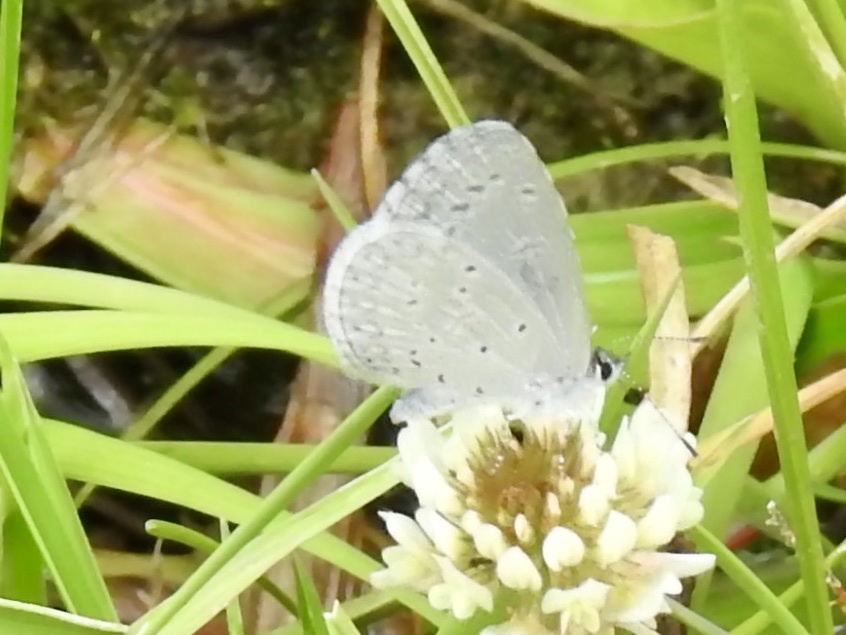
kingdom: Animalia
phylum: Arthropoda
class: Insecta
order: Lepidoptera
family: Lycaenidae
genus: Celastrina
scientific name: Celastrina ladon
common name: Spring azure
